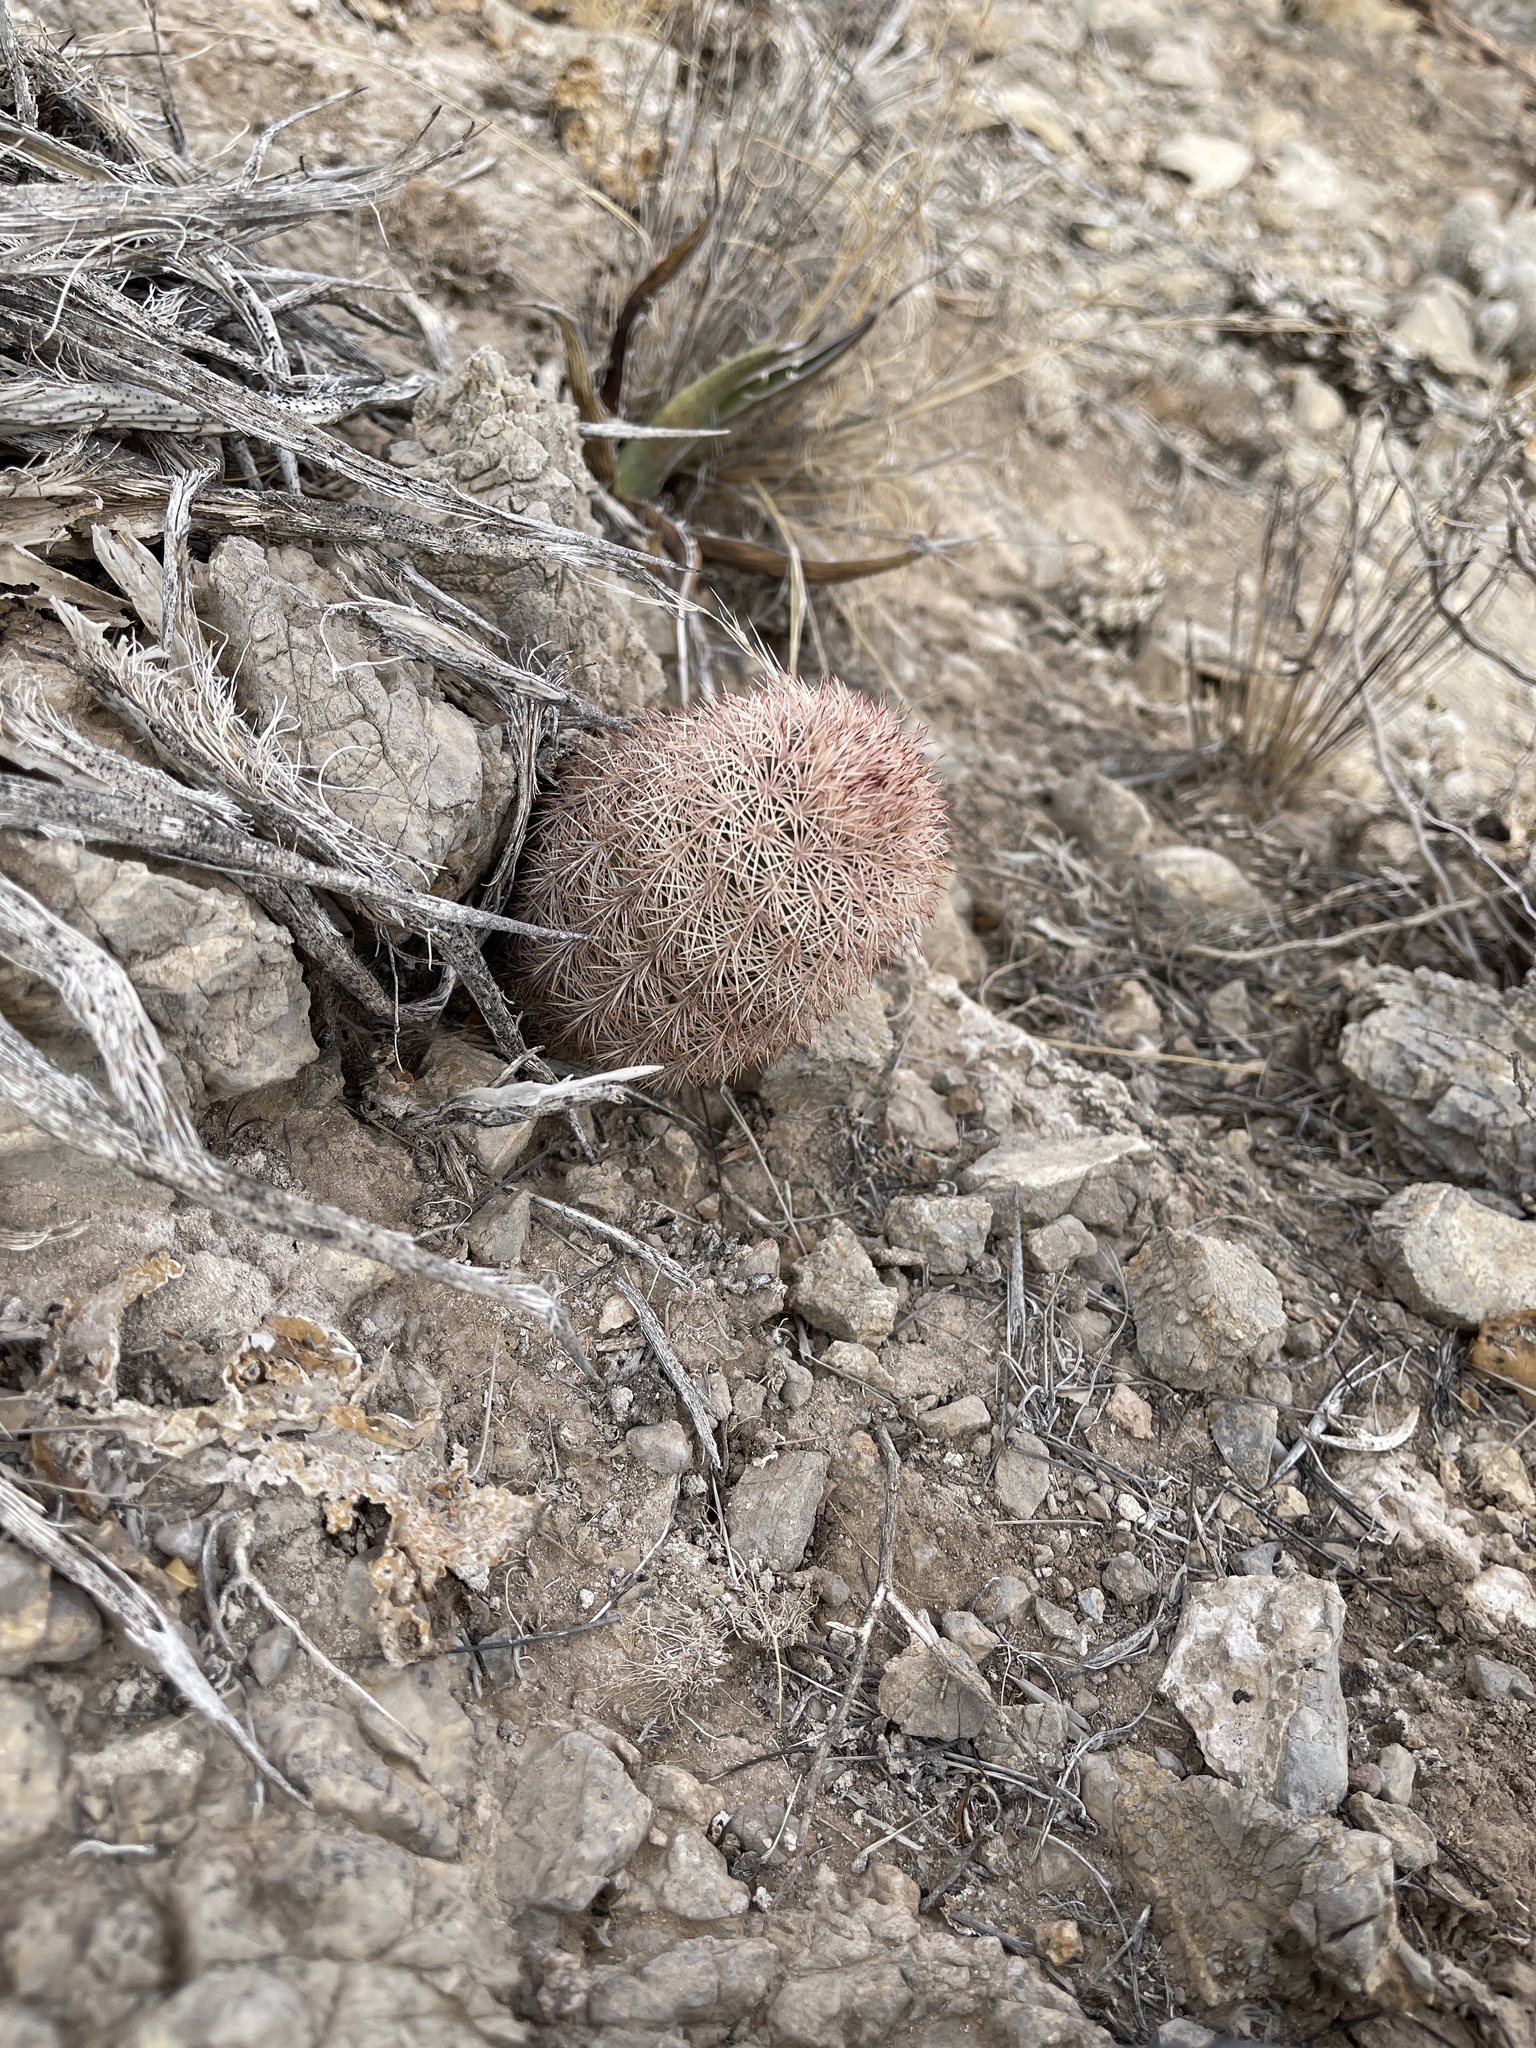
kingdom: Plantae
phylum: Tracheophyta
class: Magnoliopsida
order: Caryophyllales
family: Cactaceae
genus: Echinocereus
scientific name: Echinocereus dasyacanthus
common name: Spiny hedgehog cactus
